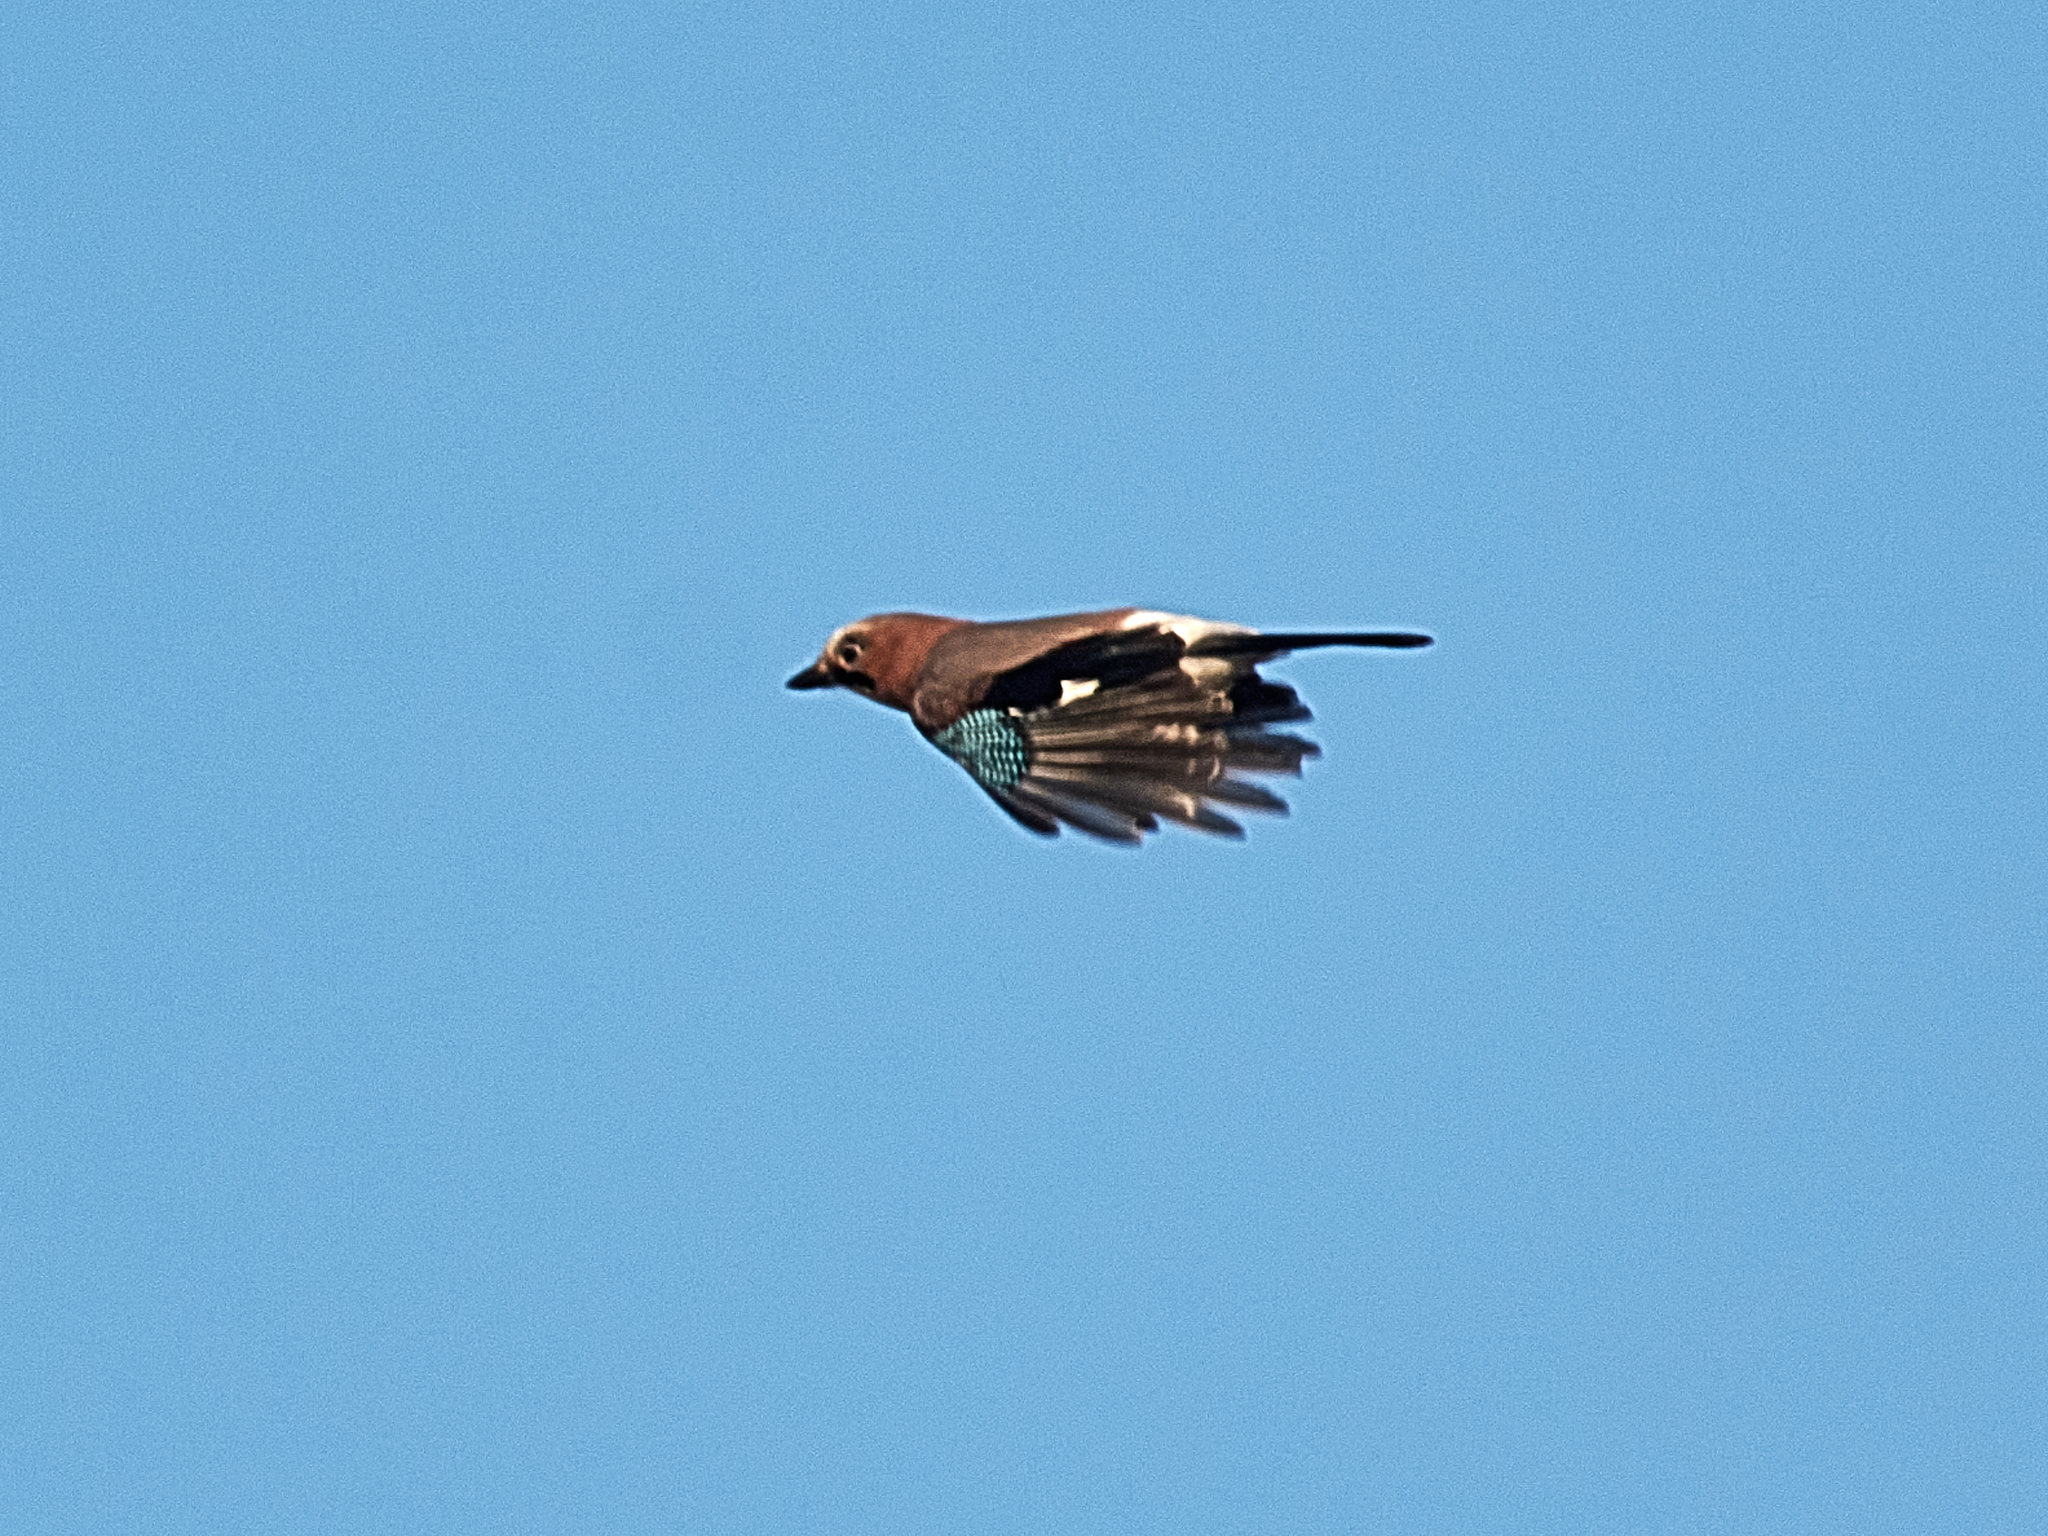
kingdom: Animalia
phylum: Chordata
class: Aves
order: Passeriformes
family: Corvidae
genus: Garrulus
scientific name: Garrulus glandarius
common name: Eurasian jay
